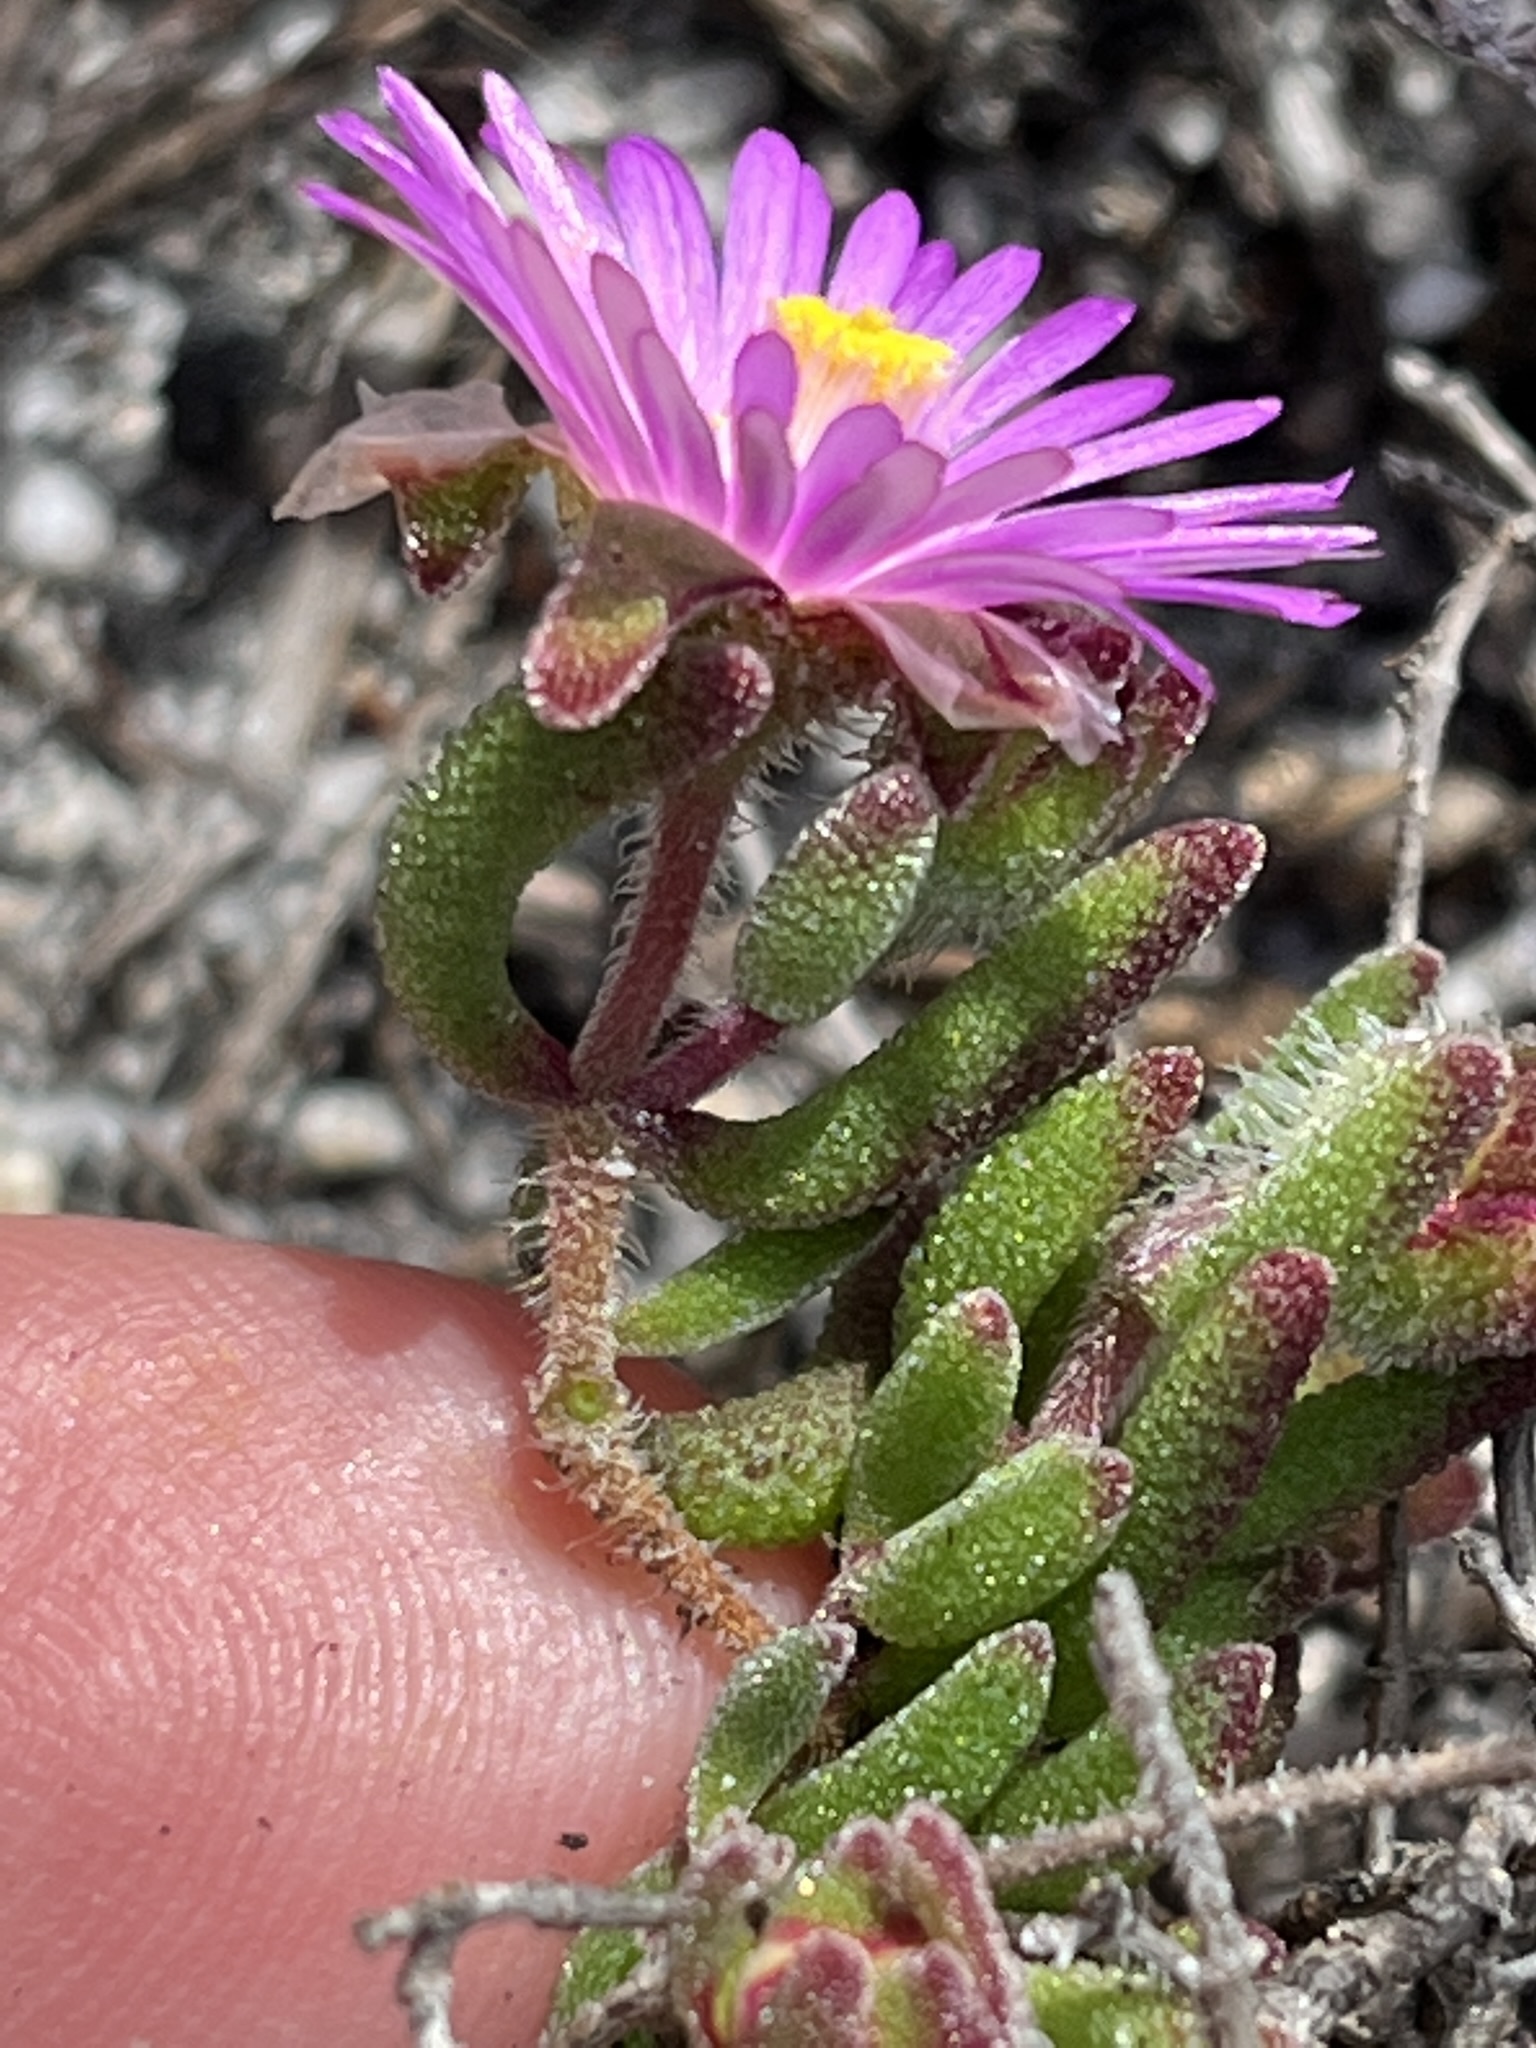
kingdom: Plantae
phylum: Tracheophyta
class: Magnoliopsida
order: Caryophyllales
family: Aizoaceae
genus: Drosanthemum
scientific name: Drosanthemum stokoei
